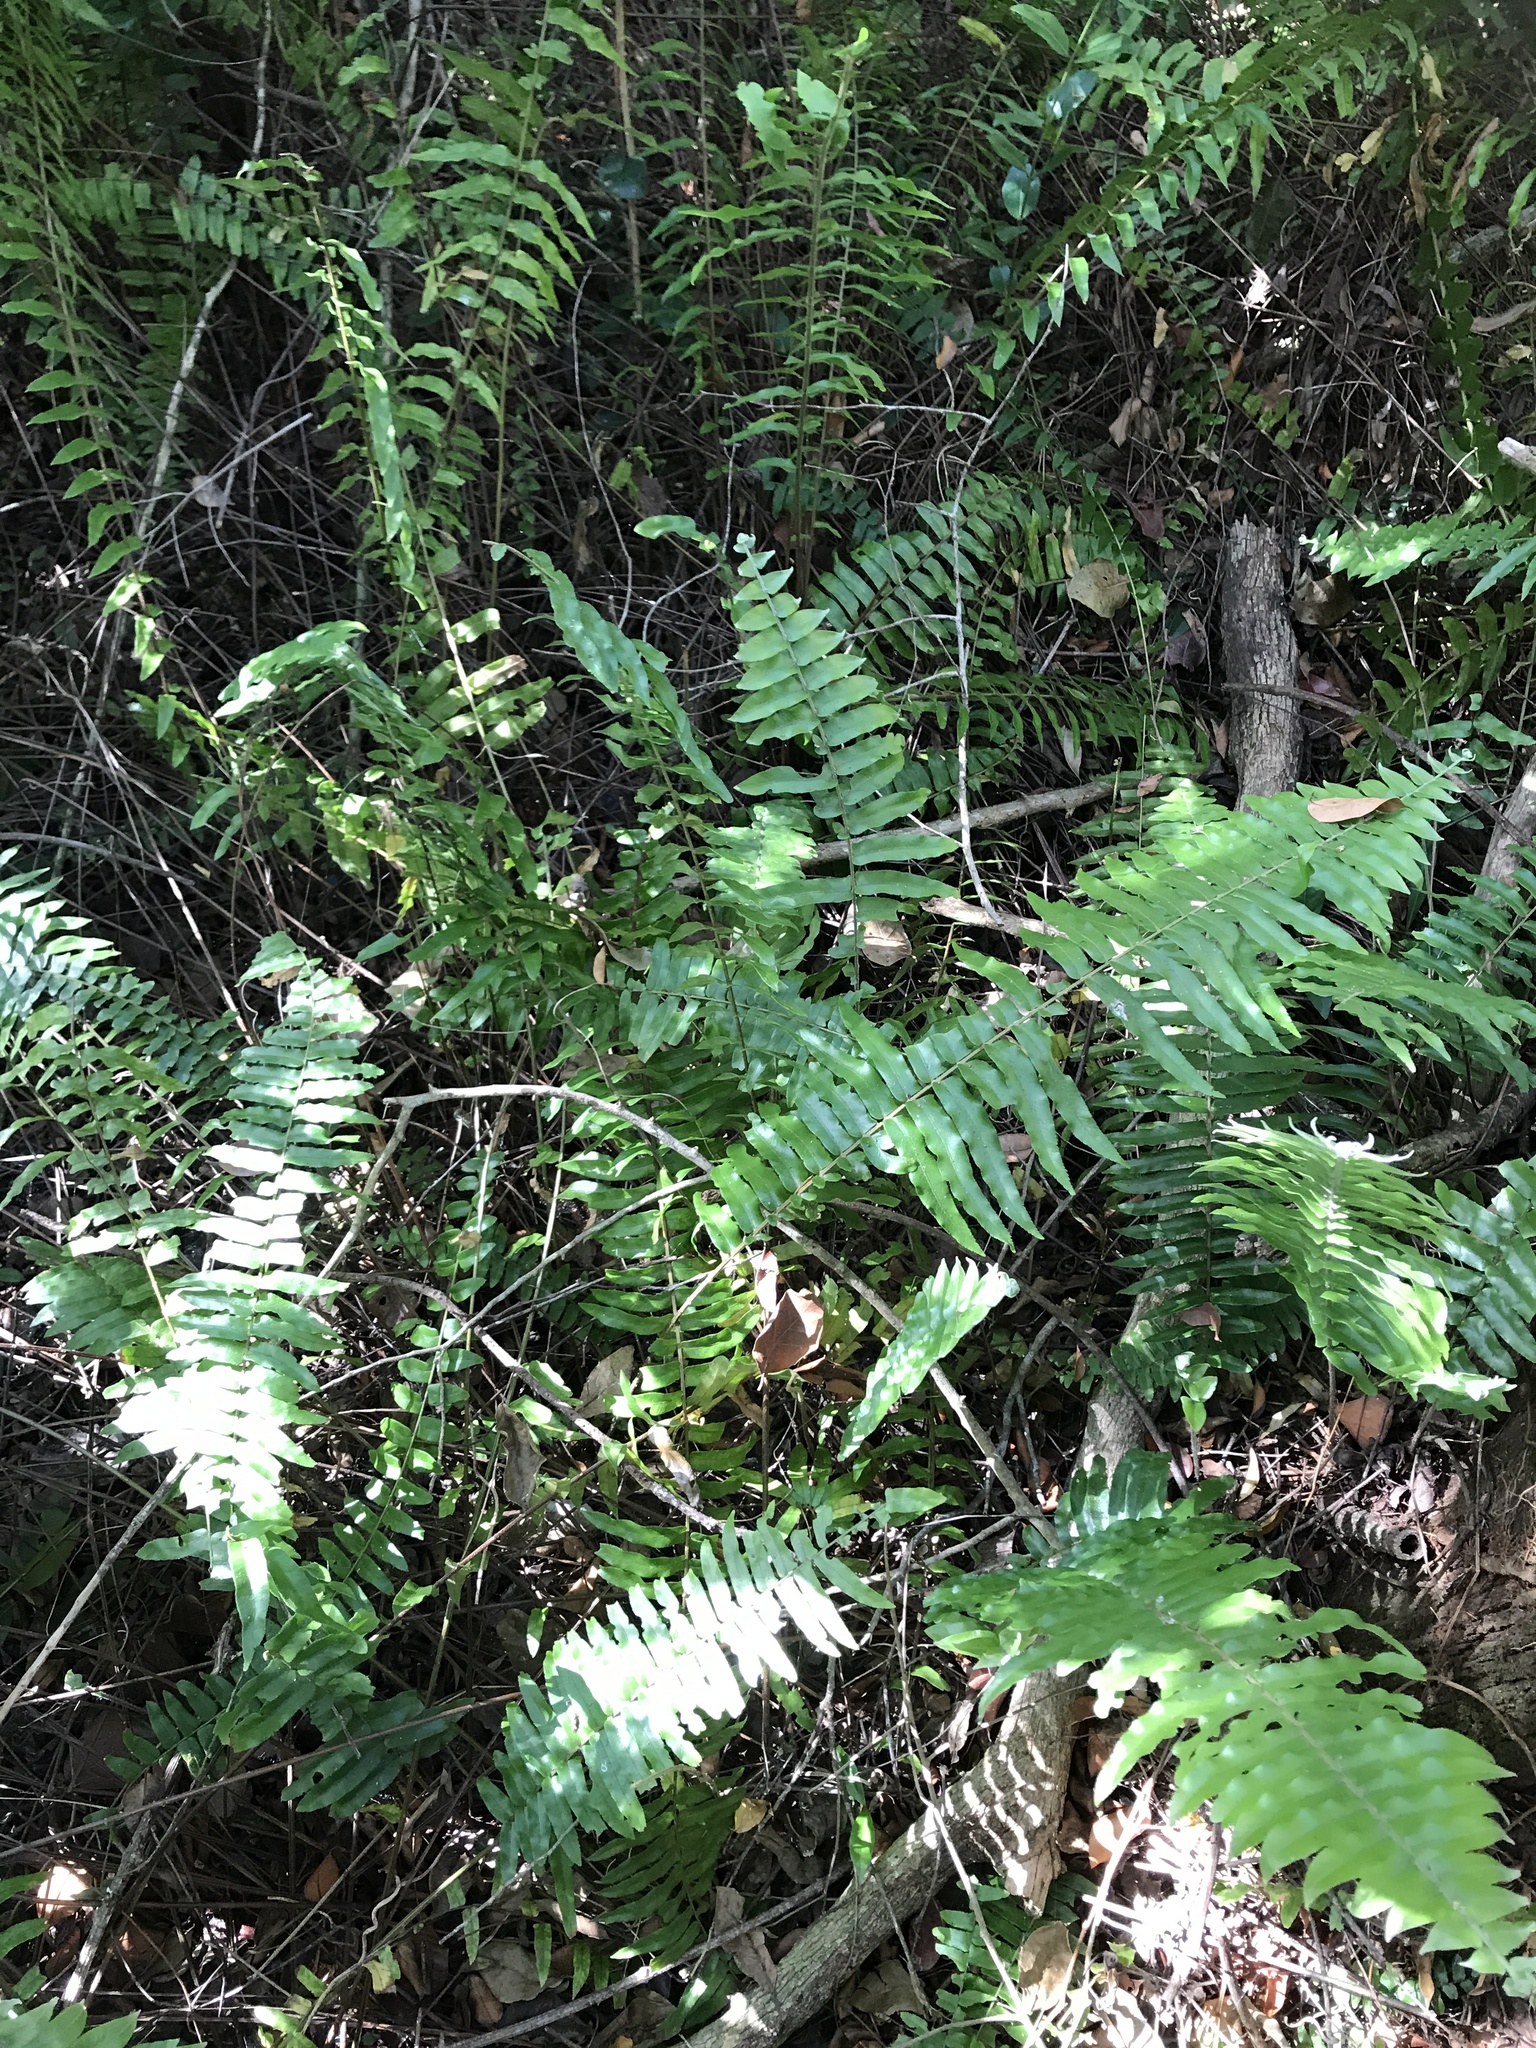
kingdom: Plantae
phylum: Tracheophyta
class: Polypodiopsida
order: Polypodiales
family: Nephrolepidaceae
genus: Nephrolepis
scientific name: Nephrolepis biserrata
